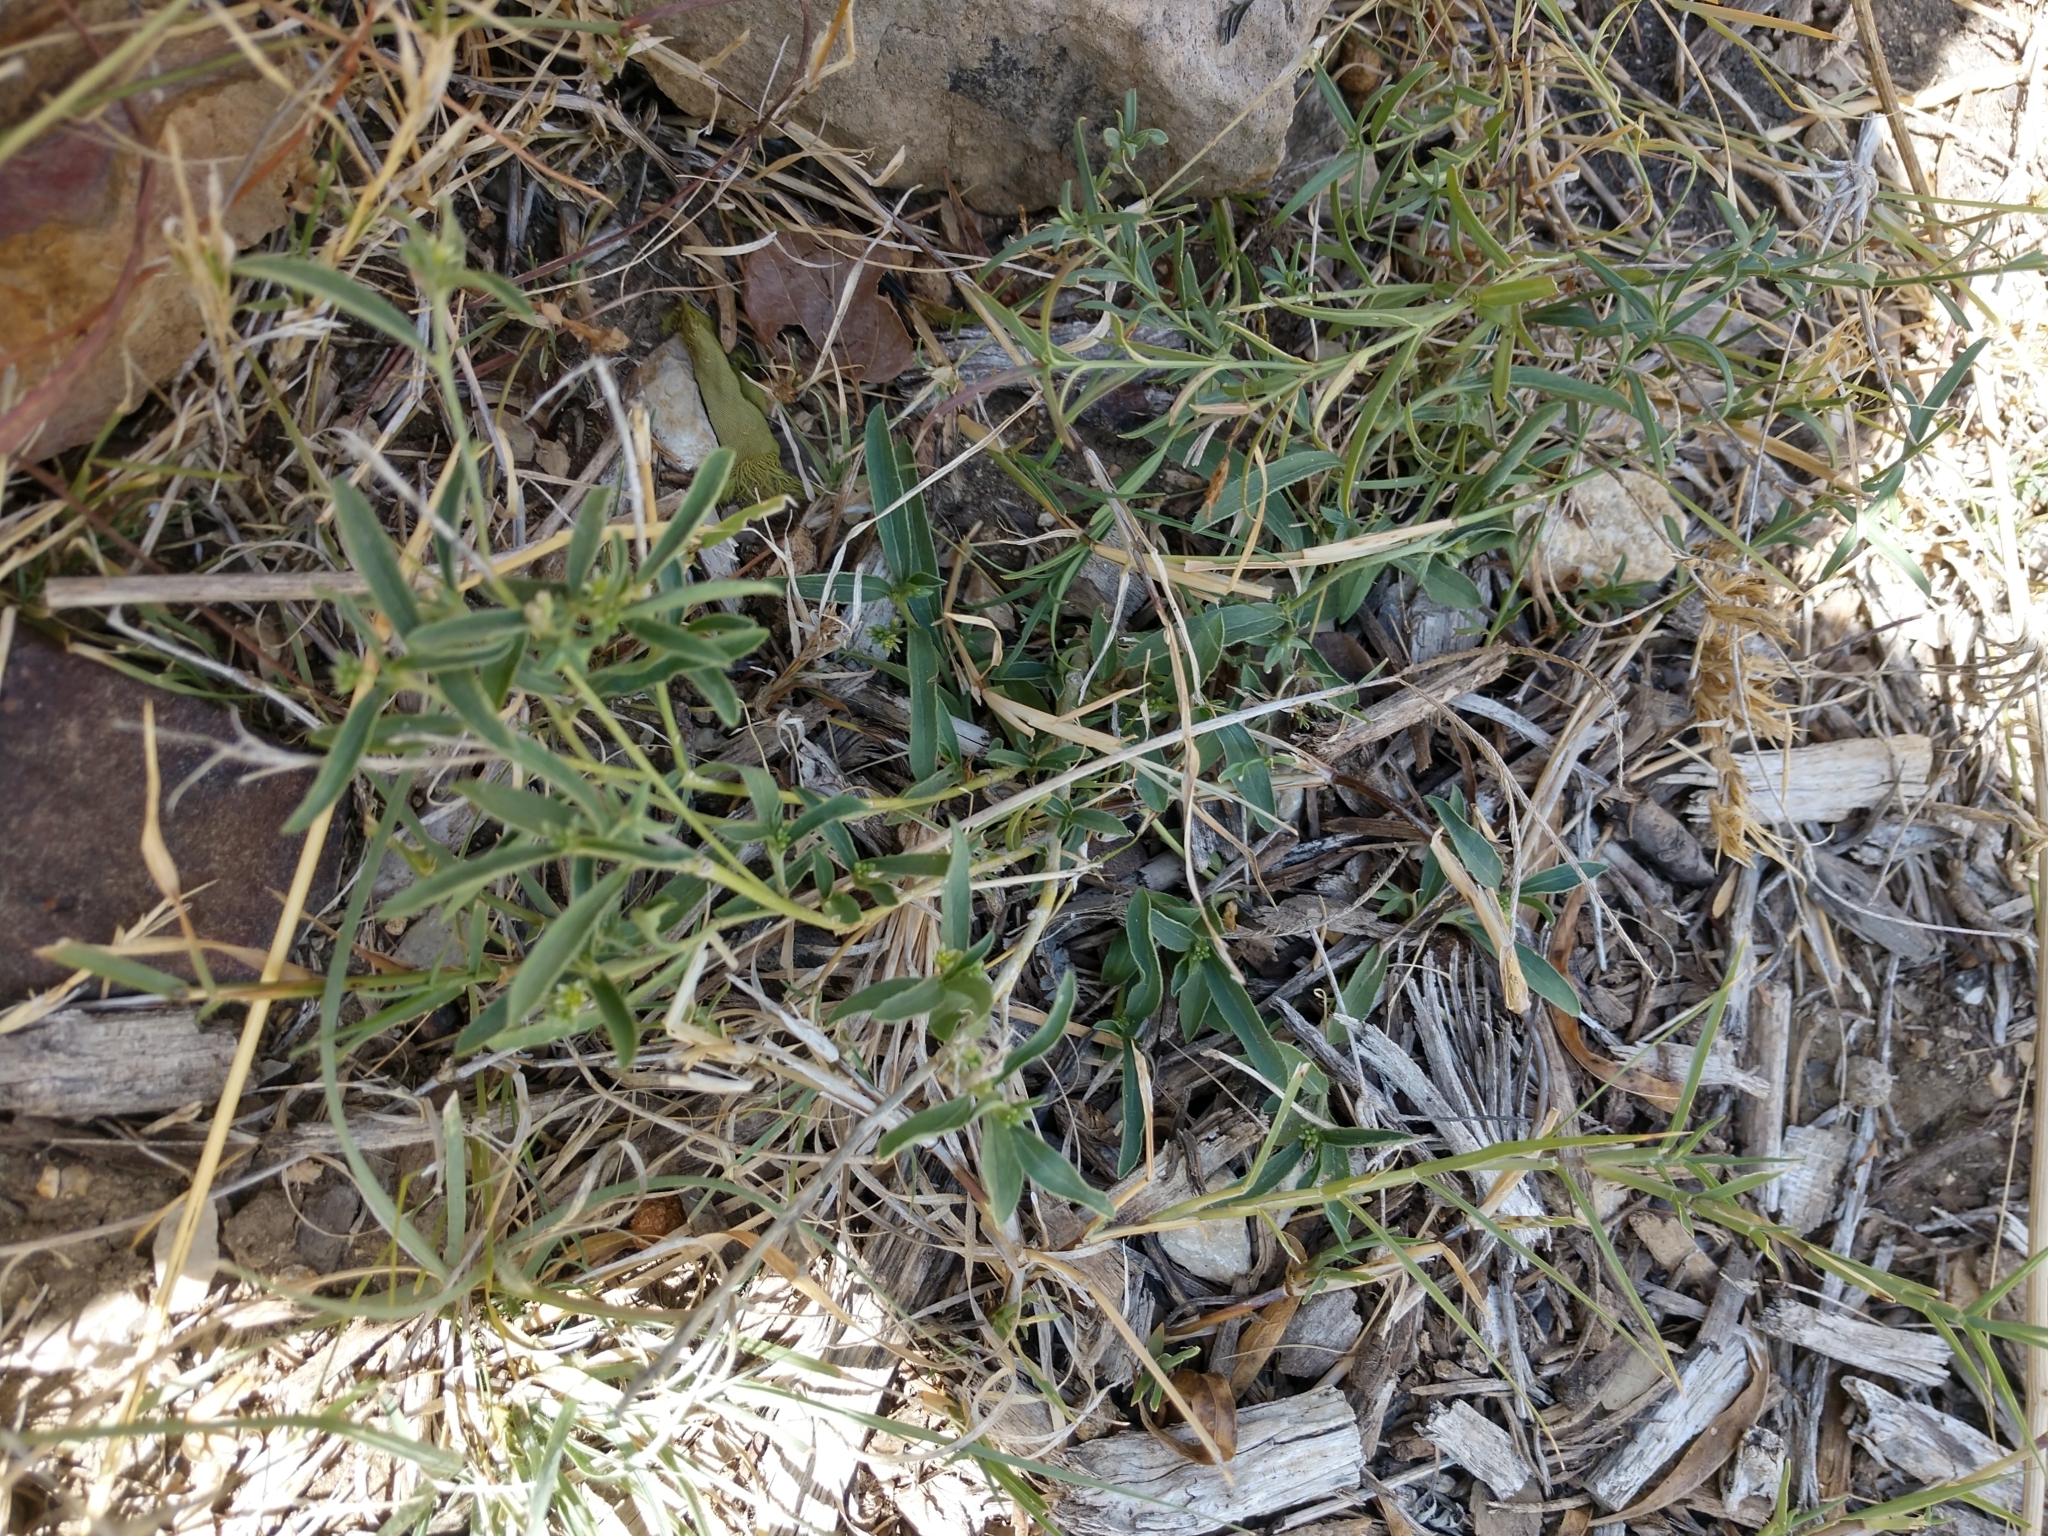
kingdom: Plantae
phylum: Tracheophyta
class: Magnoliopsida
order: Malpighiales
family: Euphorbiaceae
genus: Ditaxis
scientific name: Ditaxis humilis
